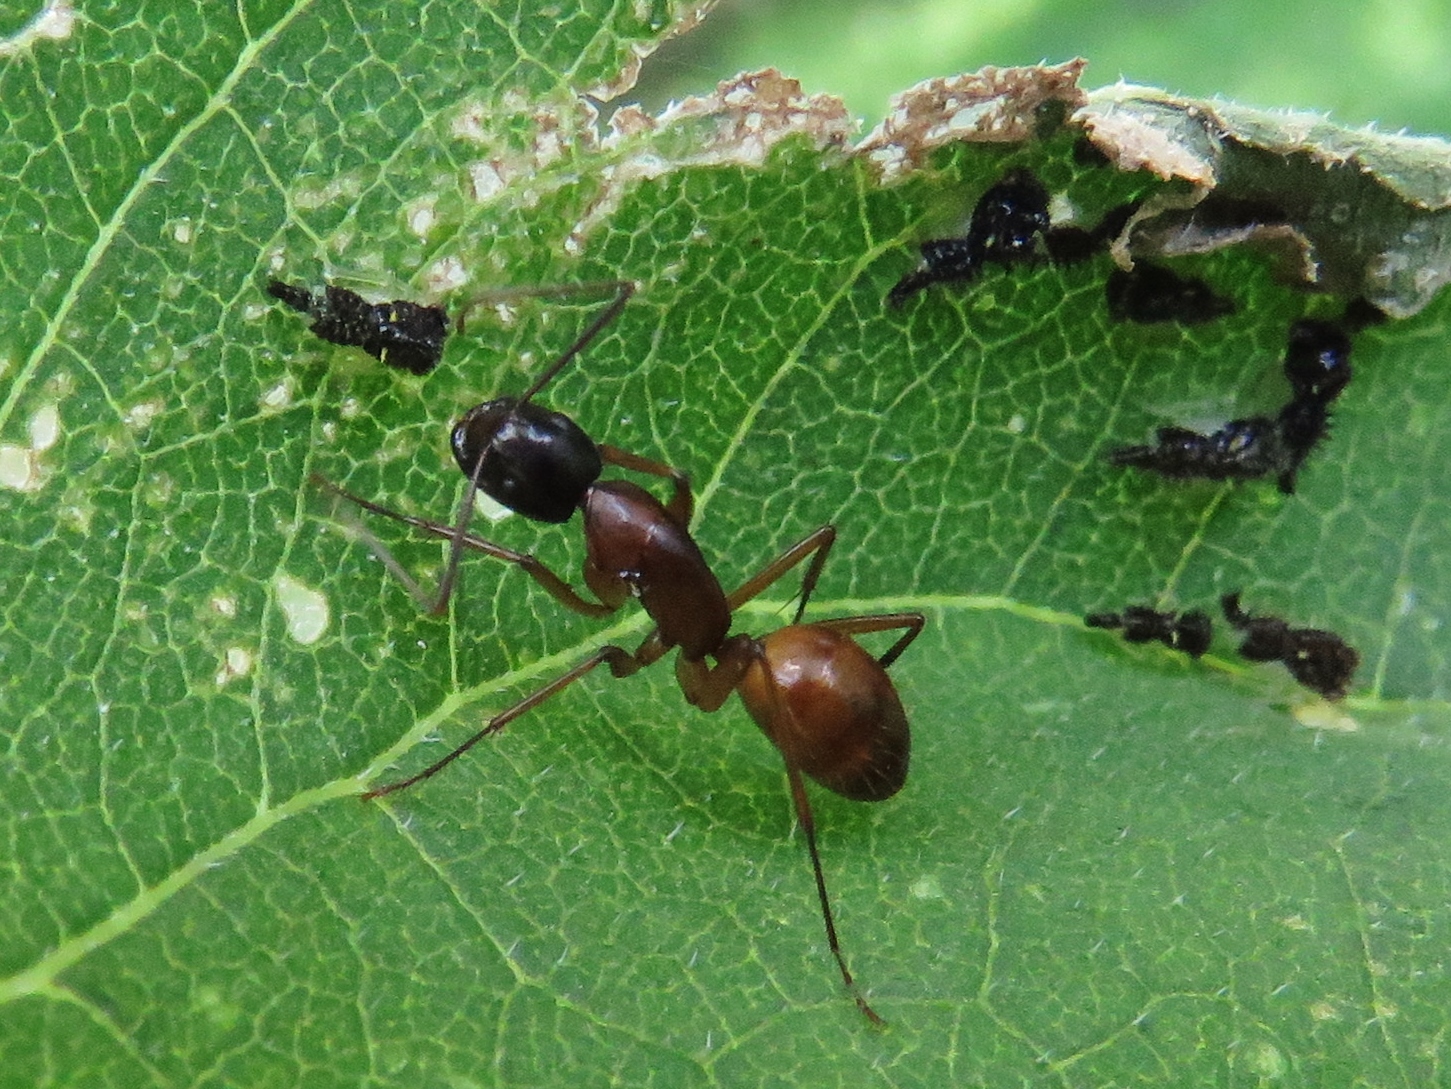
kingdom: Animalia
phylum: Arthropoda
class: Insecta
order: Hymenoptera
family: Formicidae
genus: Camponotus
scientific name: Camponotus americanus
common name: American carpenter ant
